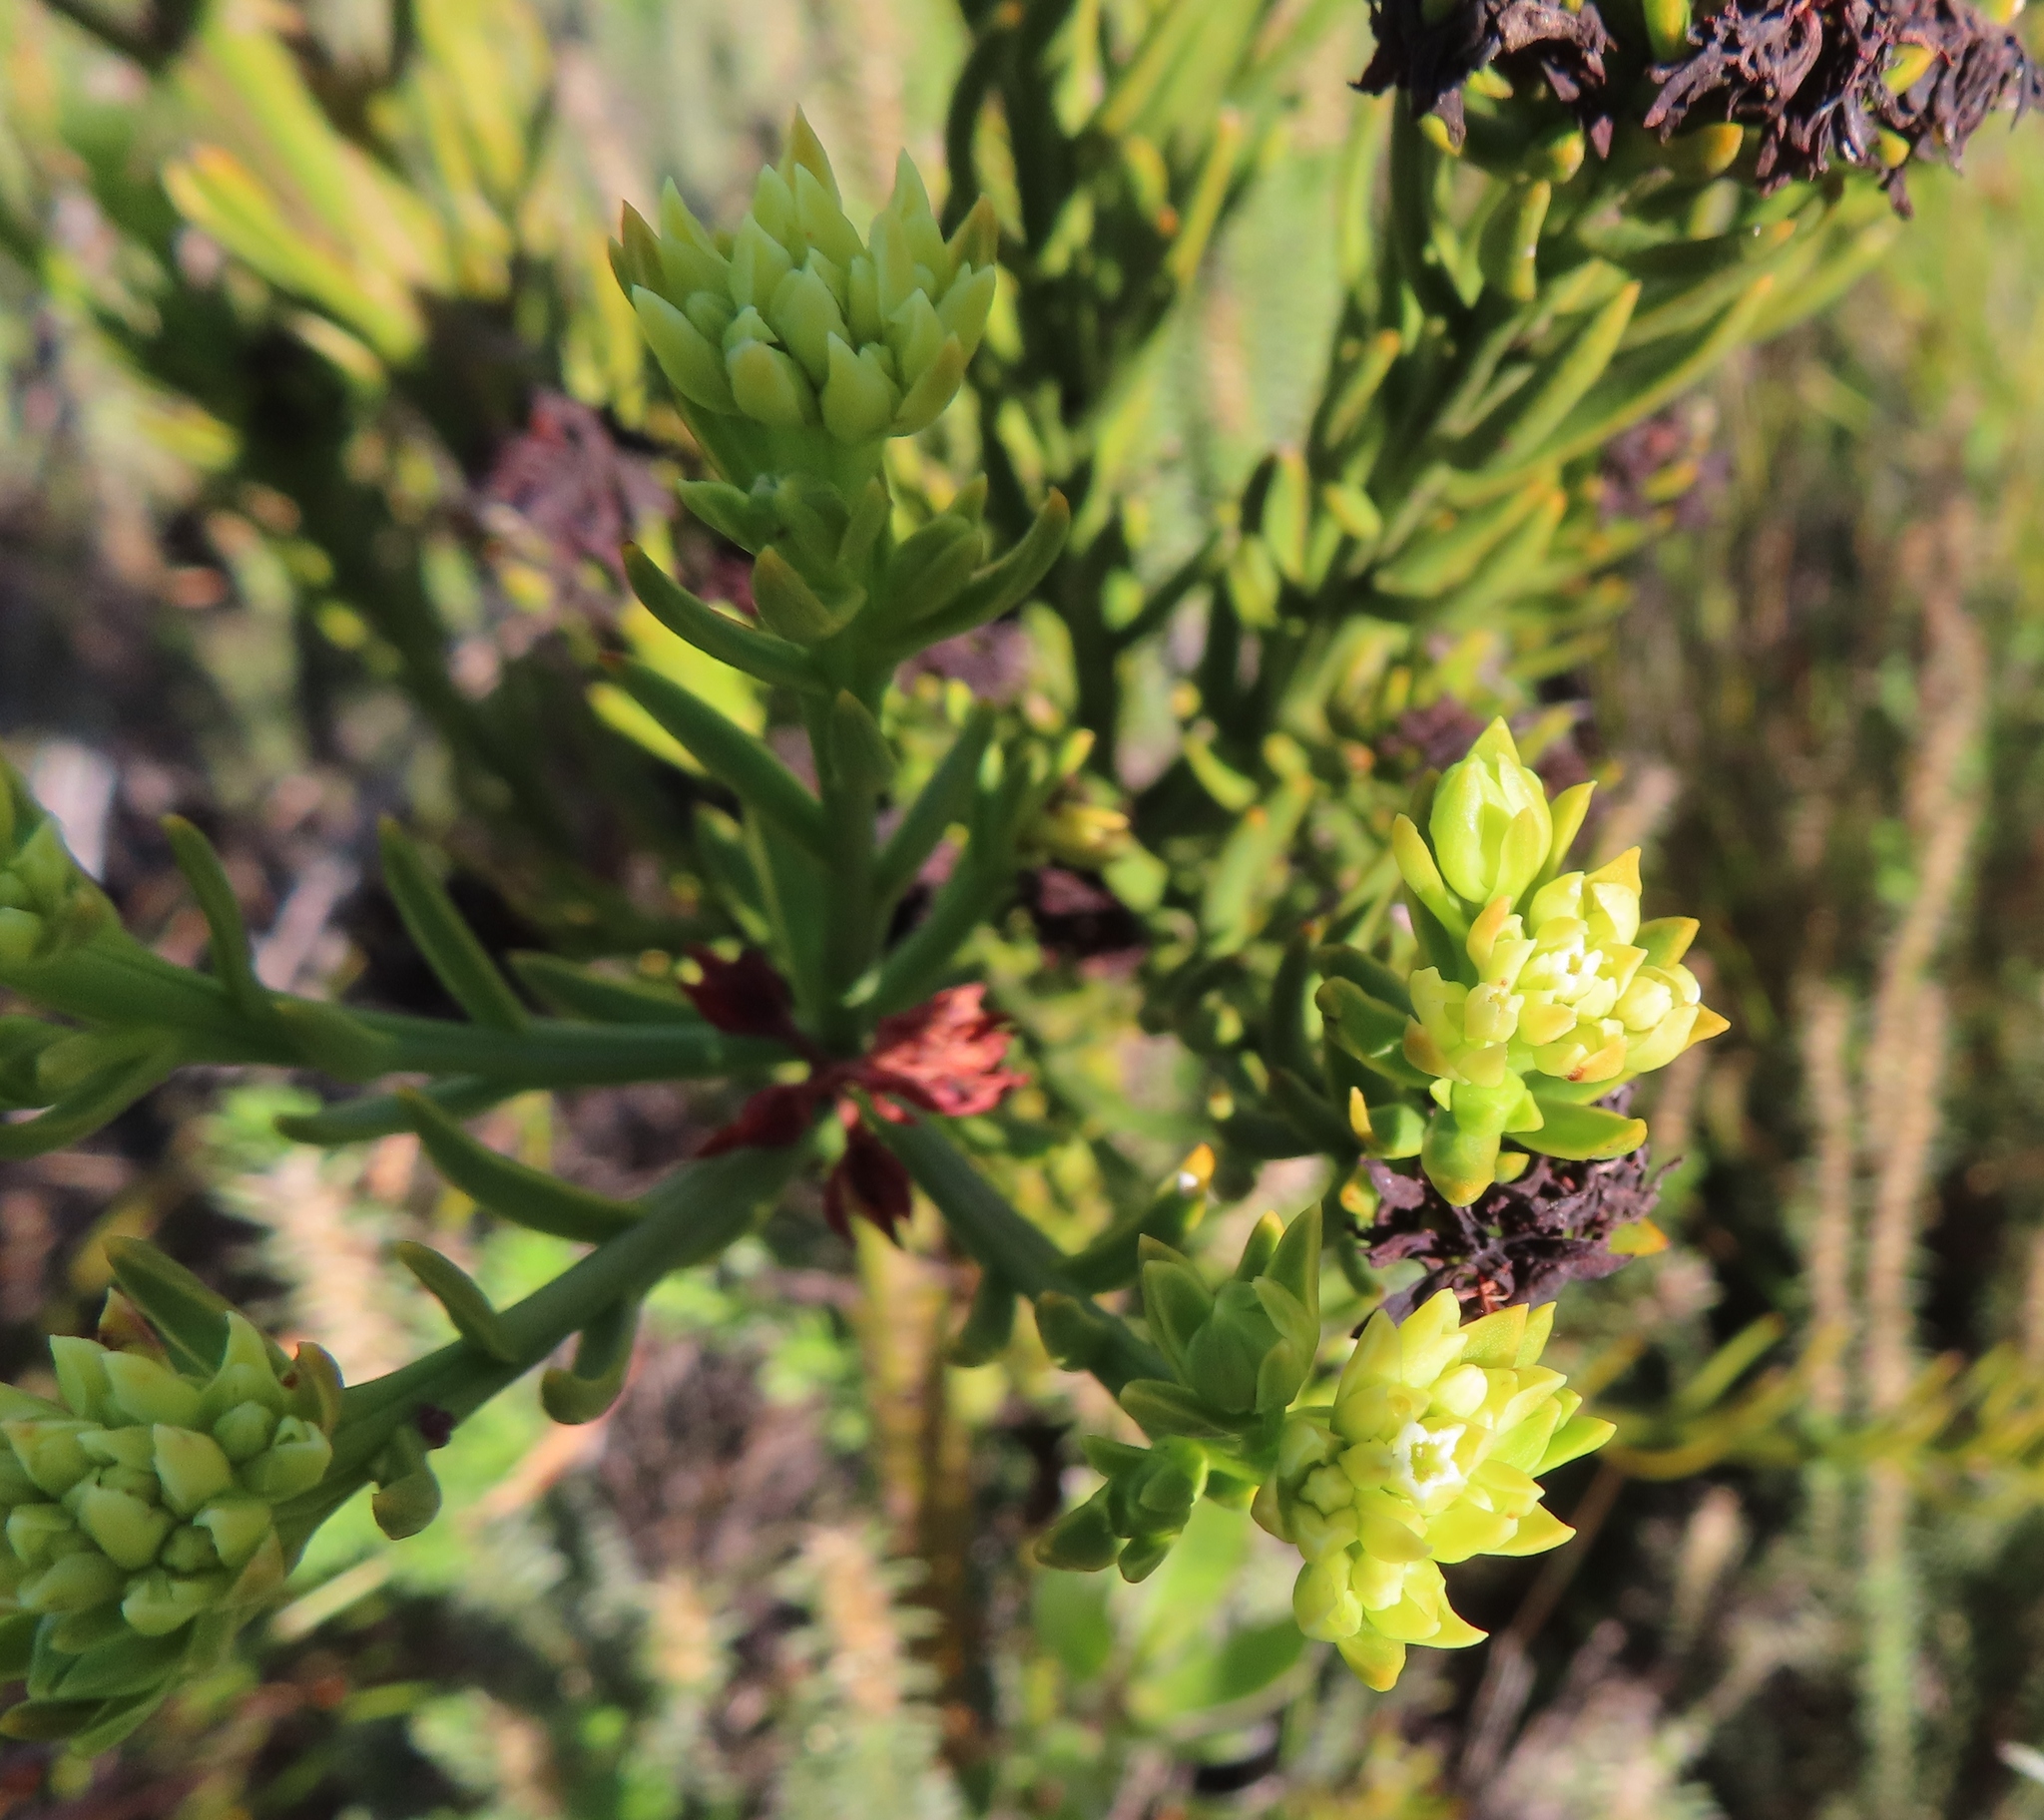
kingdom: Plantae
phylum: Tracheophyta
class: Magnoliopsida
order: Santalales
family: Thesiaceae
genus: Thesium
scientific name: Thesium strictum
